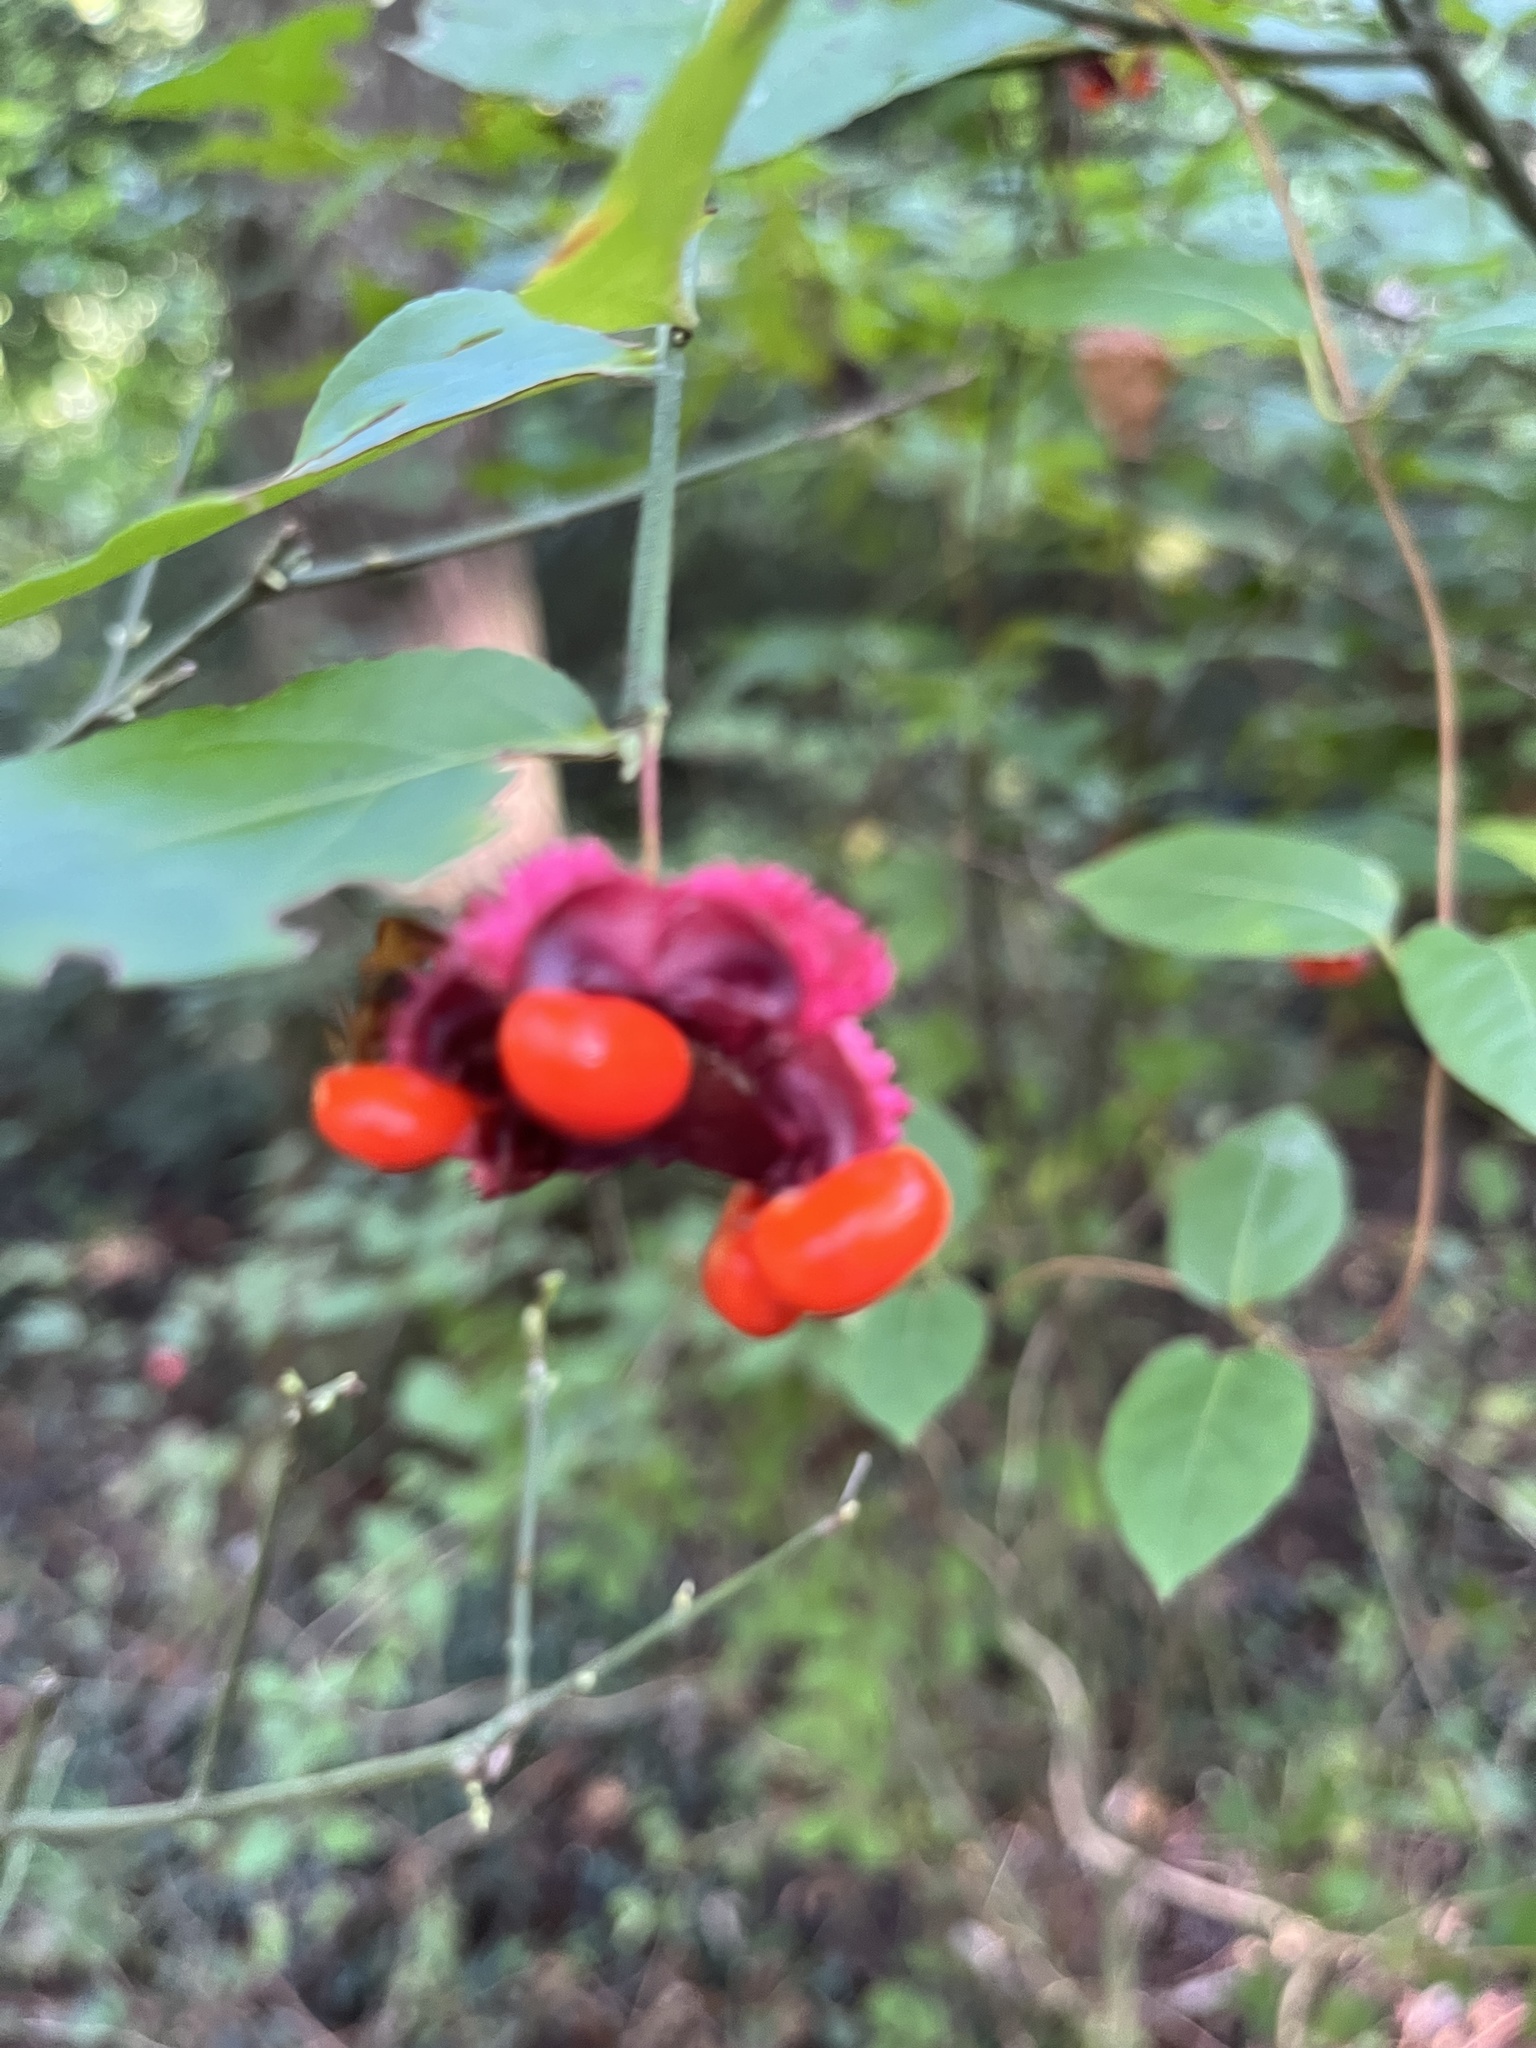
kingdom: Plantae
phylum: Tracheophyta
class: Magnoliopsida
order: Celastrales
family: Celastraceae
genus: Euonymus
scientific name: Euonymus americanus
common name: Bursting-heart
